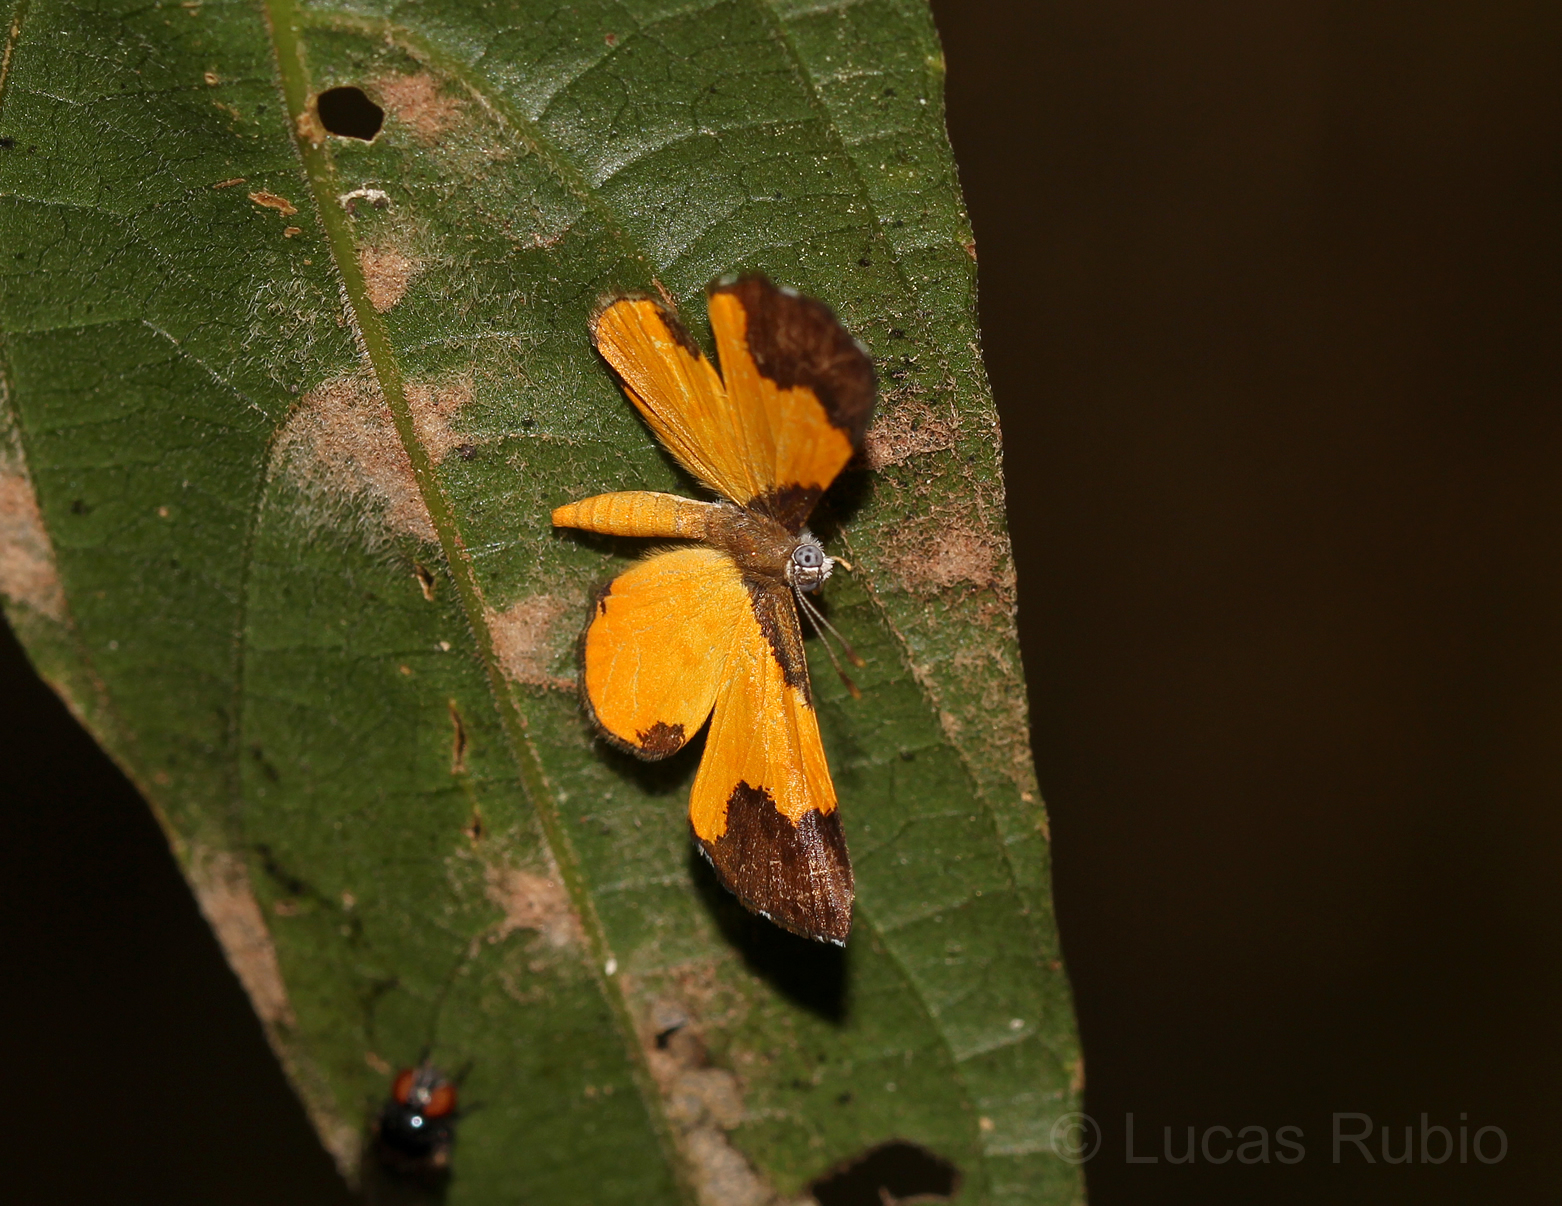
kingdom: Animalia
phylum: Arthropoda
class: Insecta
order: Lepidoptera
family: Riodinidae
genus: Echenais
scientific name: Echenais Adelotypa bolena
